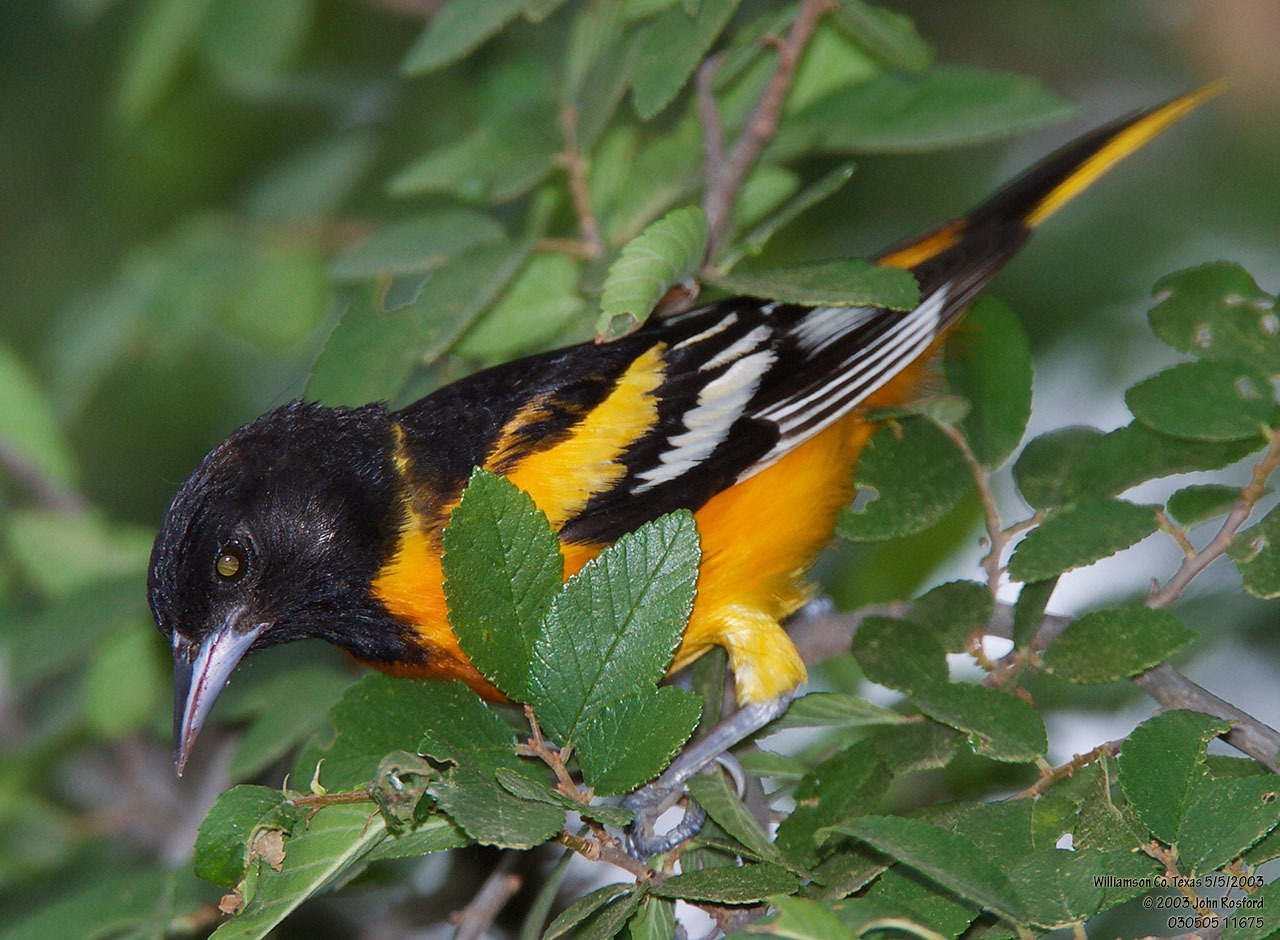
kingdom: Animalia
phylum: Chordata
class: Aves
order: Passeriformes
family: Icteridae
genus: Icterus
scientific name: Icterus galbula
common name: Baltimore oriole
